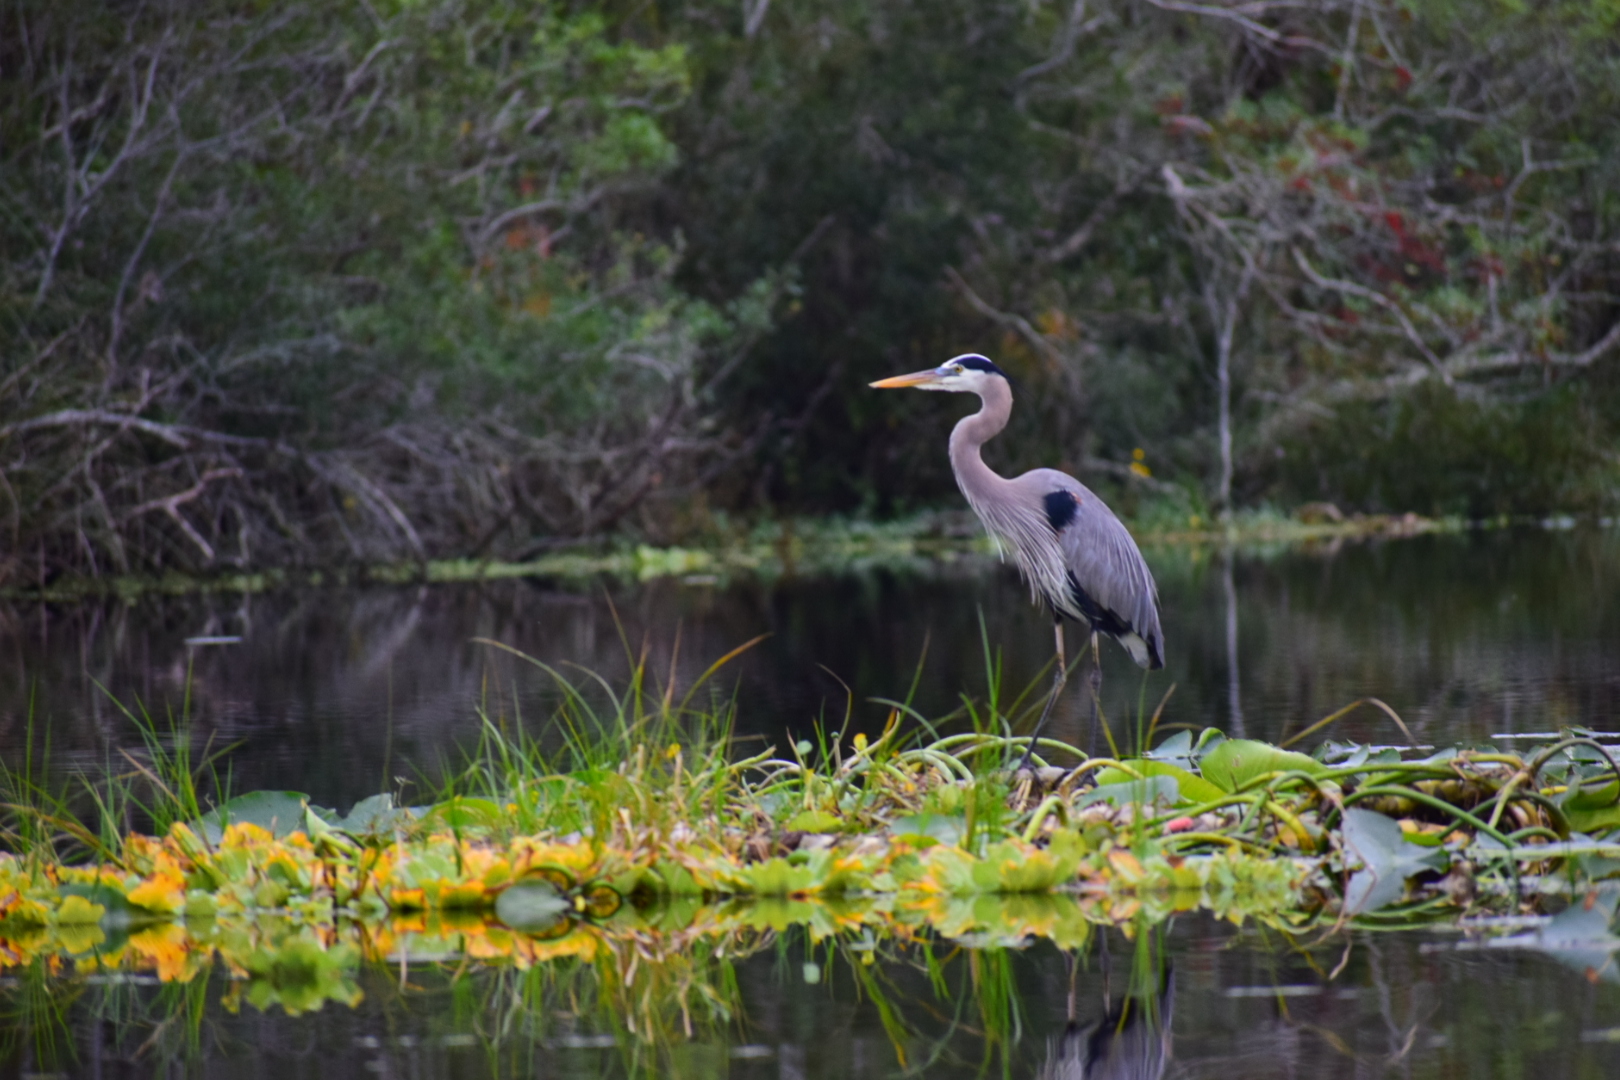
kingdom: Animalia
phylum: Chordata
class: Aves
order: Pelecaniformes
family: Ardeidae
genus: Ardea
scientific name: Ardea herodias
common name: Great blue heron
